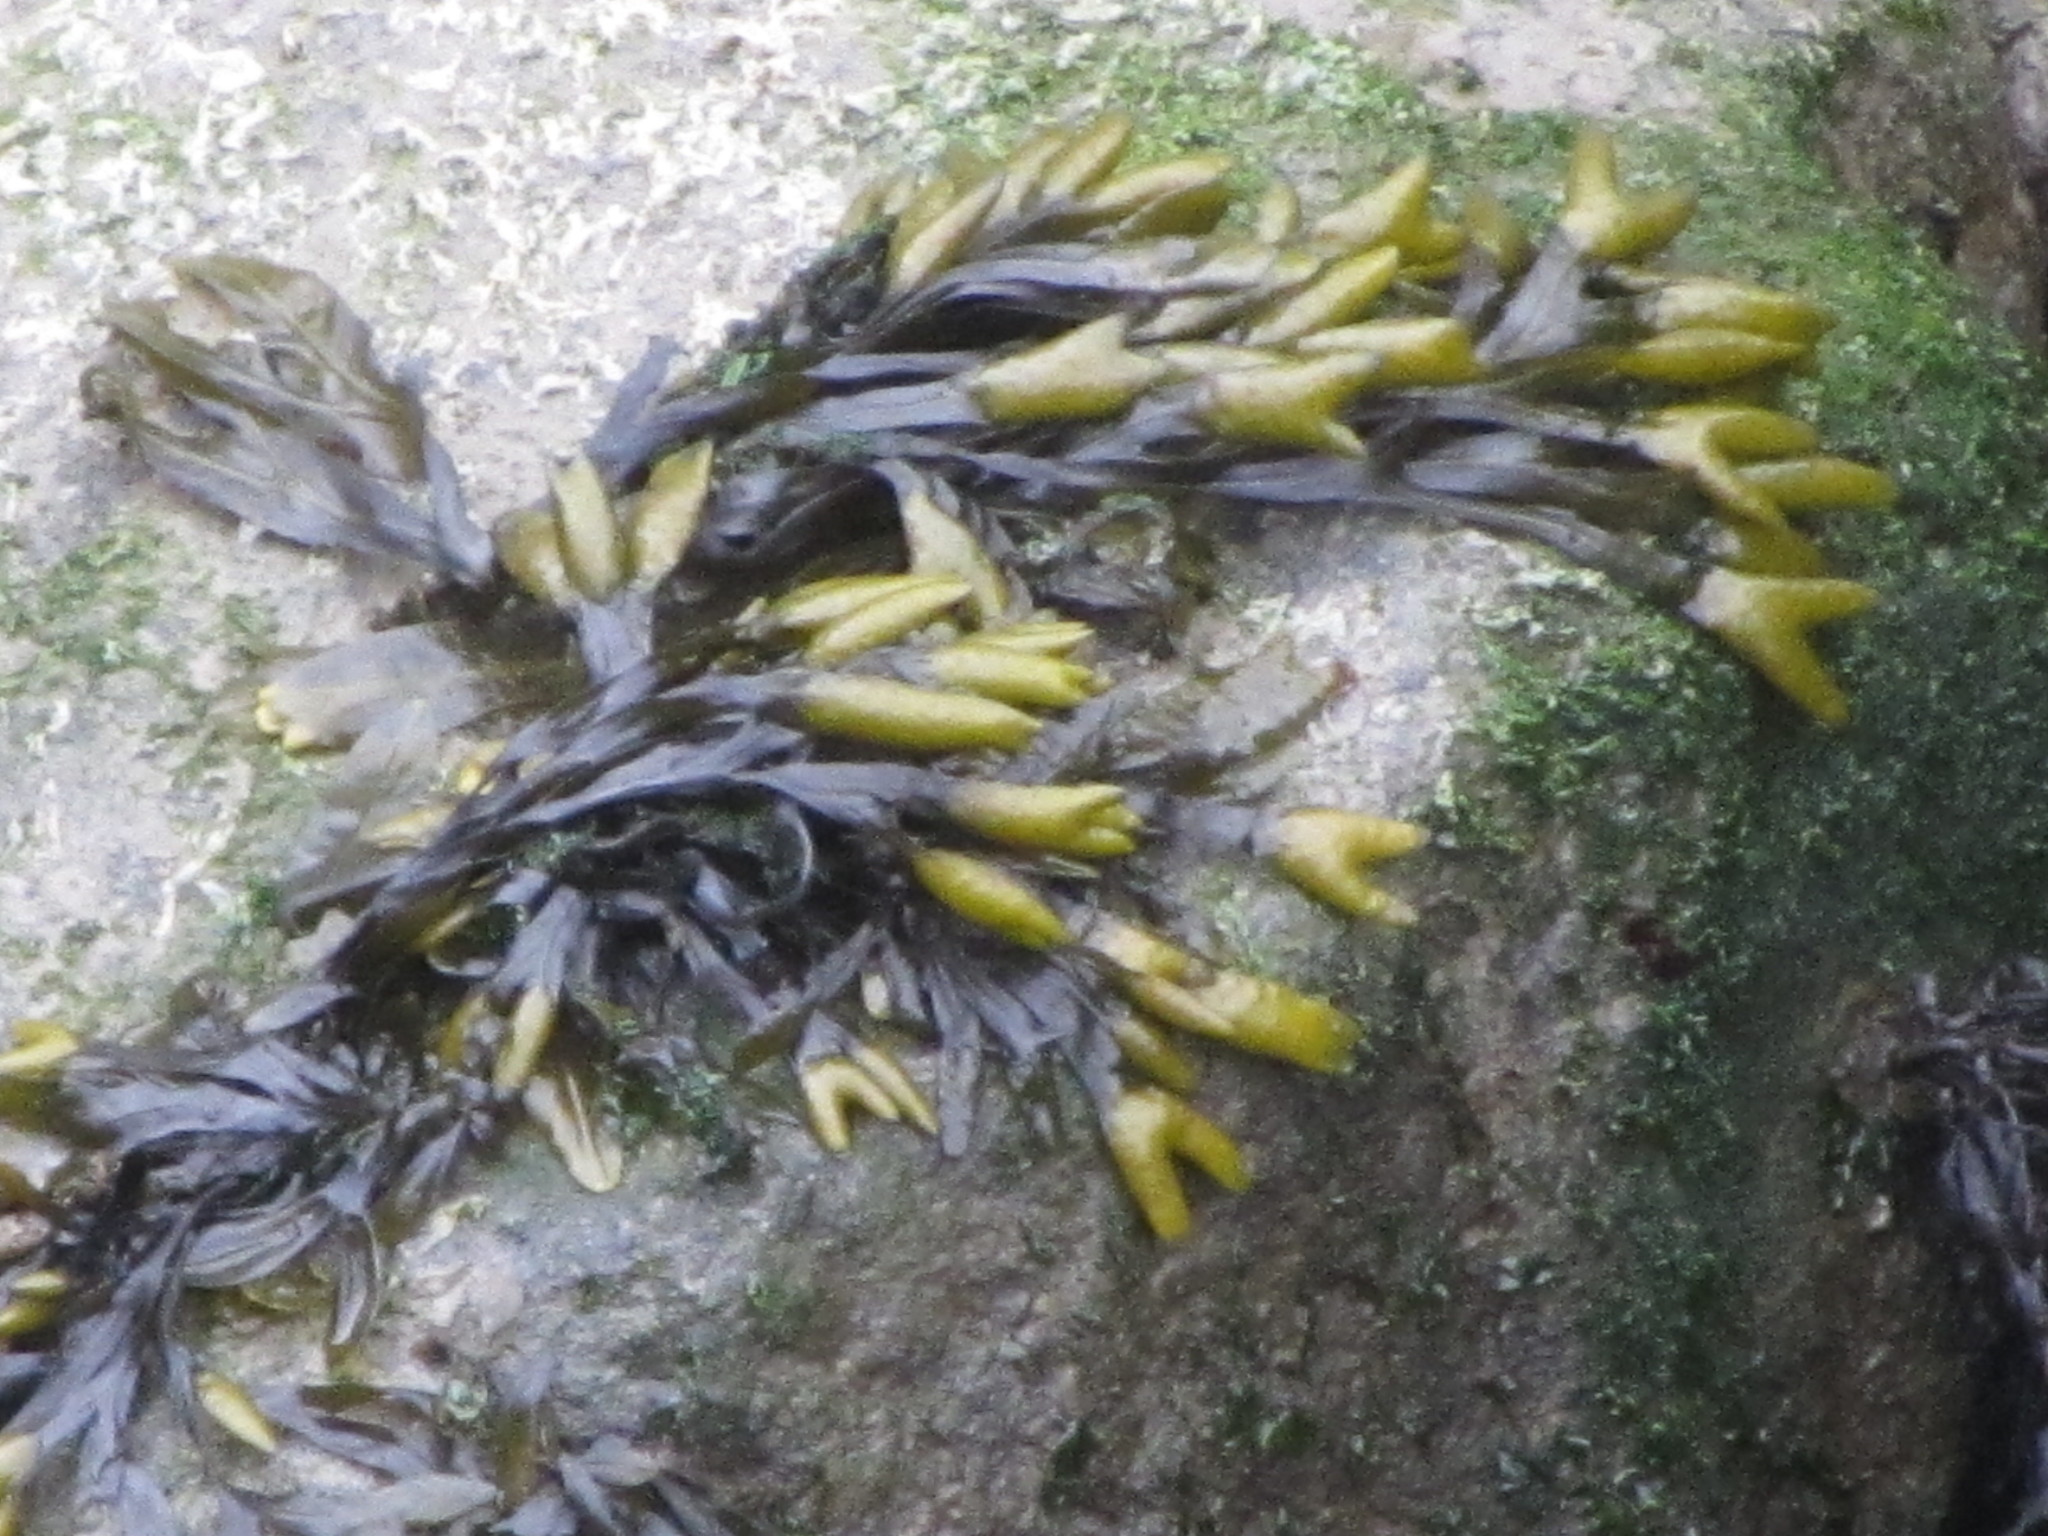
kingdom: Chromista
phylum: Ochrophyta
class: Phaeophyceae
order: Fucales
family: Fucaceae
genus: Fucus
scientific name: Fucus distichus
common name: Rockweed
